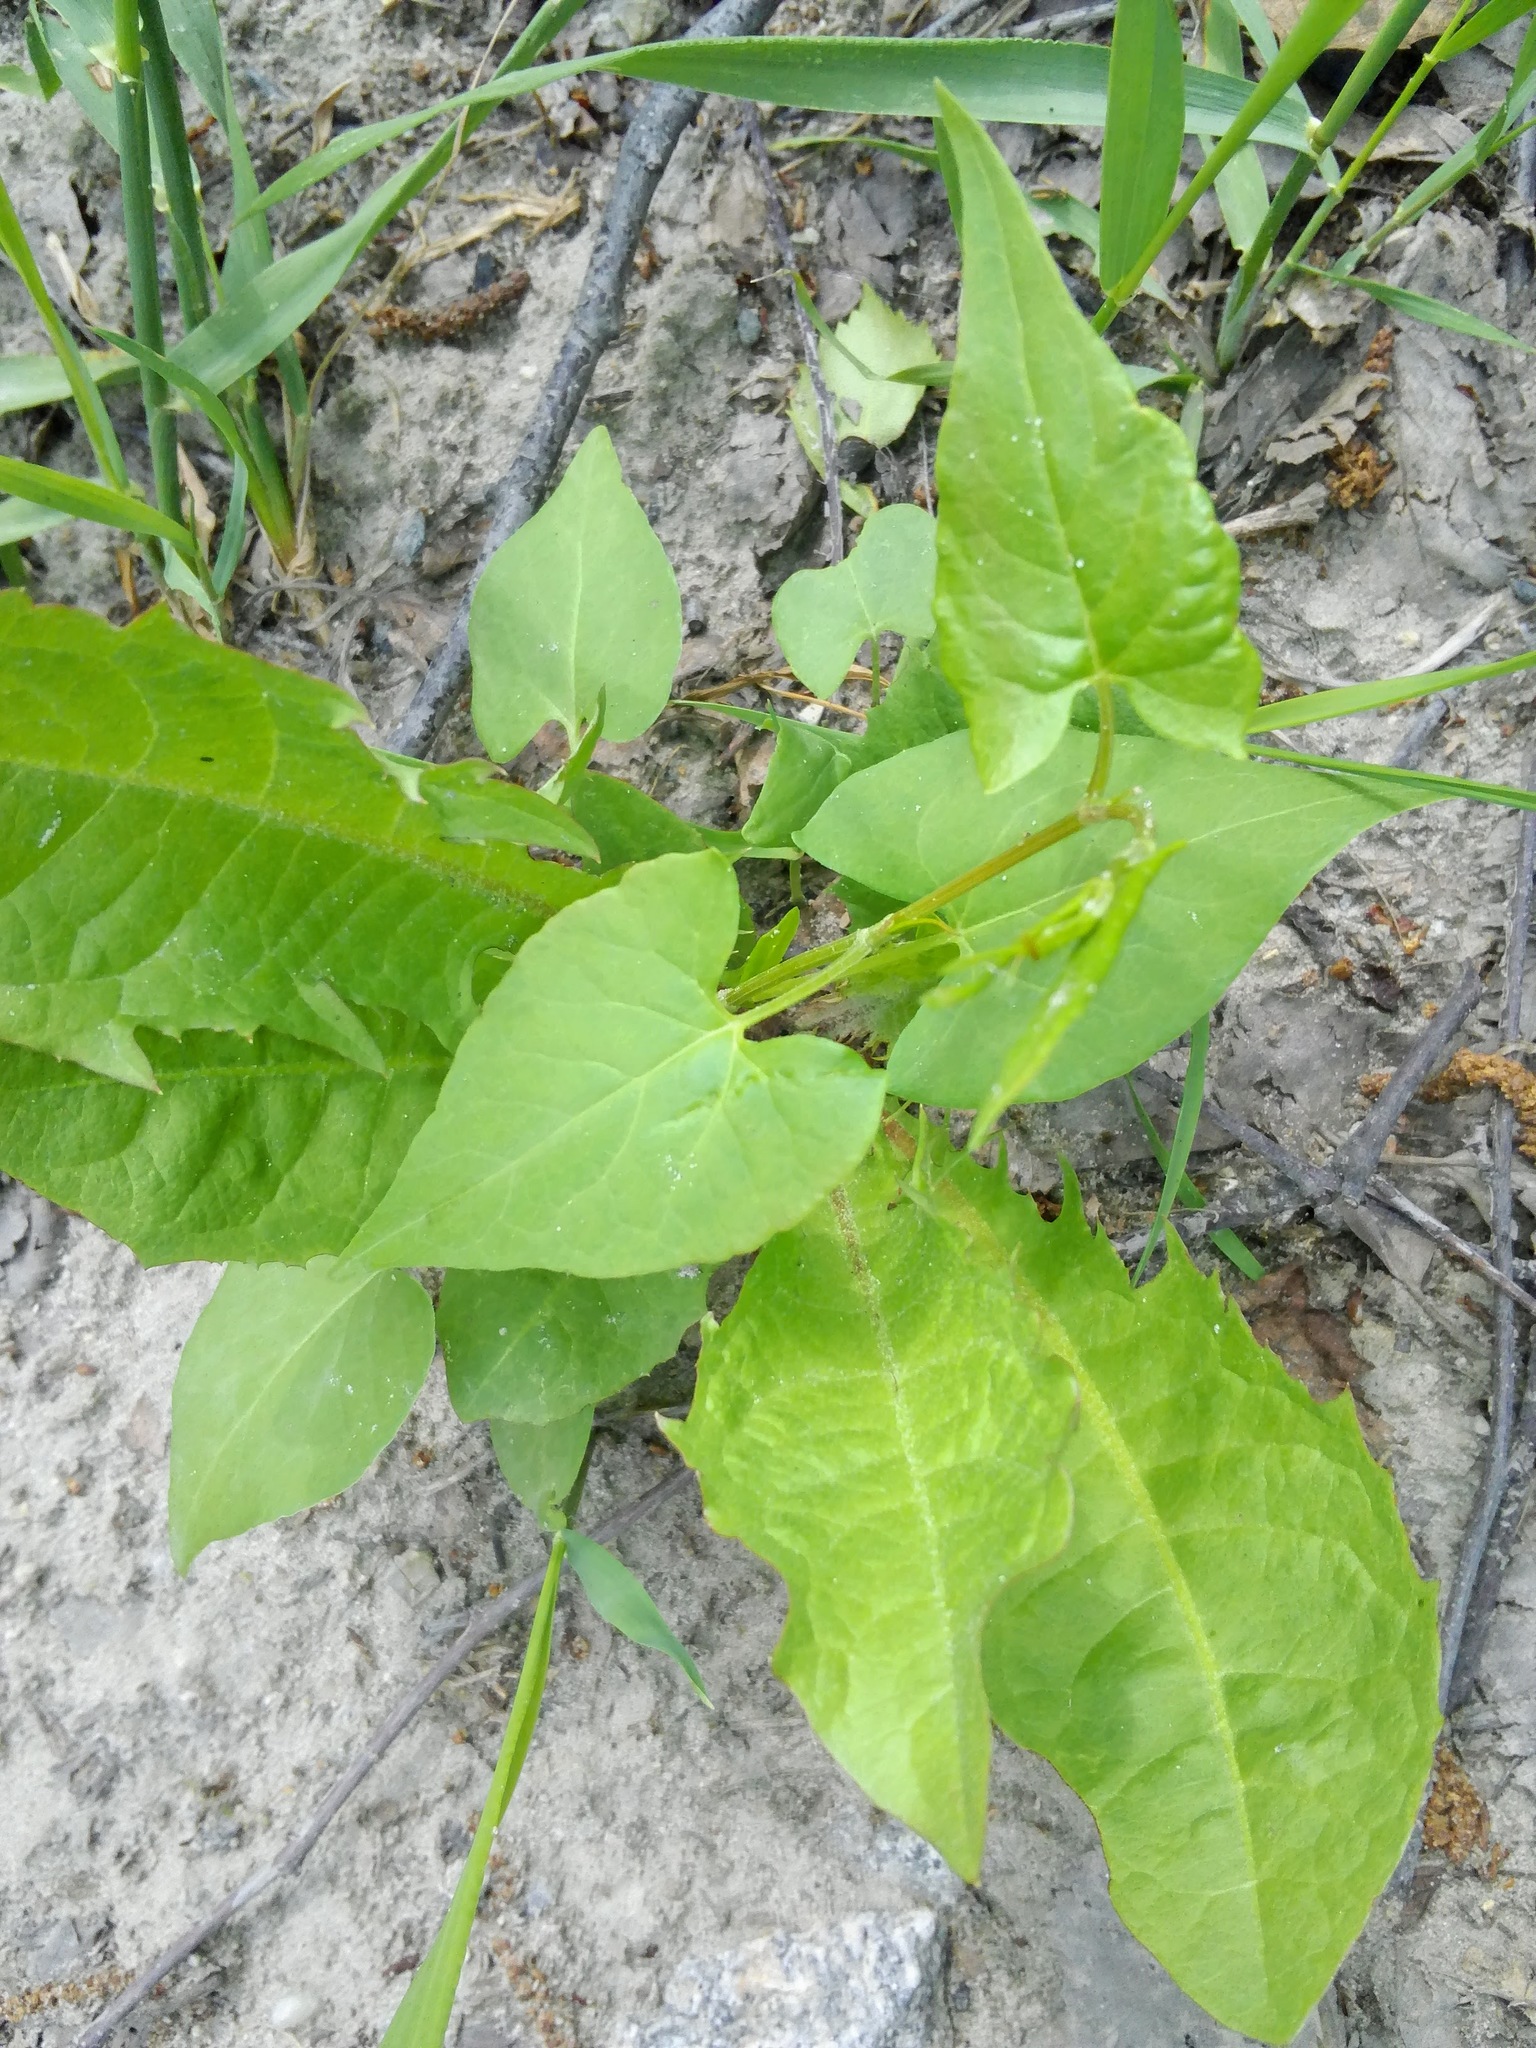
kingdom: Plantae
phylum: Tracheophyta
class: Magnoliopsida
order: Caryophyllales
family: Polygonaceae
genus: Fallopia
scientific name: Fallopia convolvulus
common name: Black bindweed
